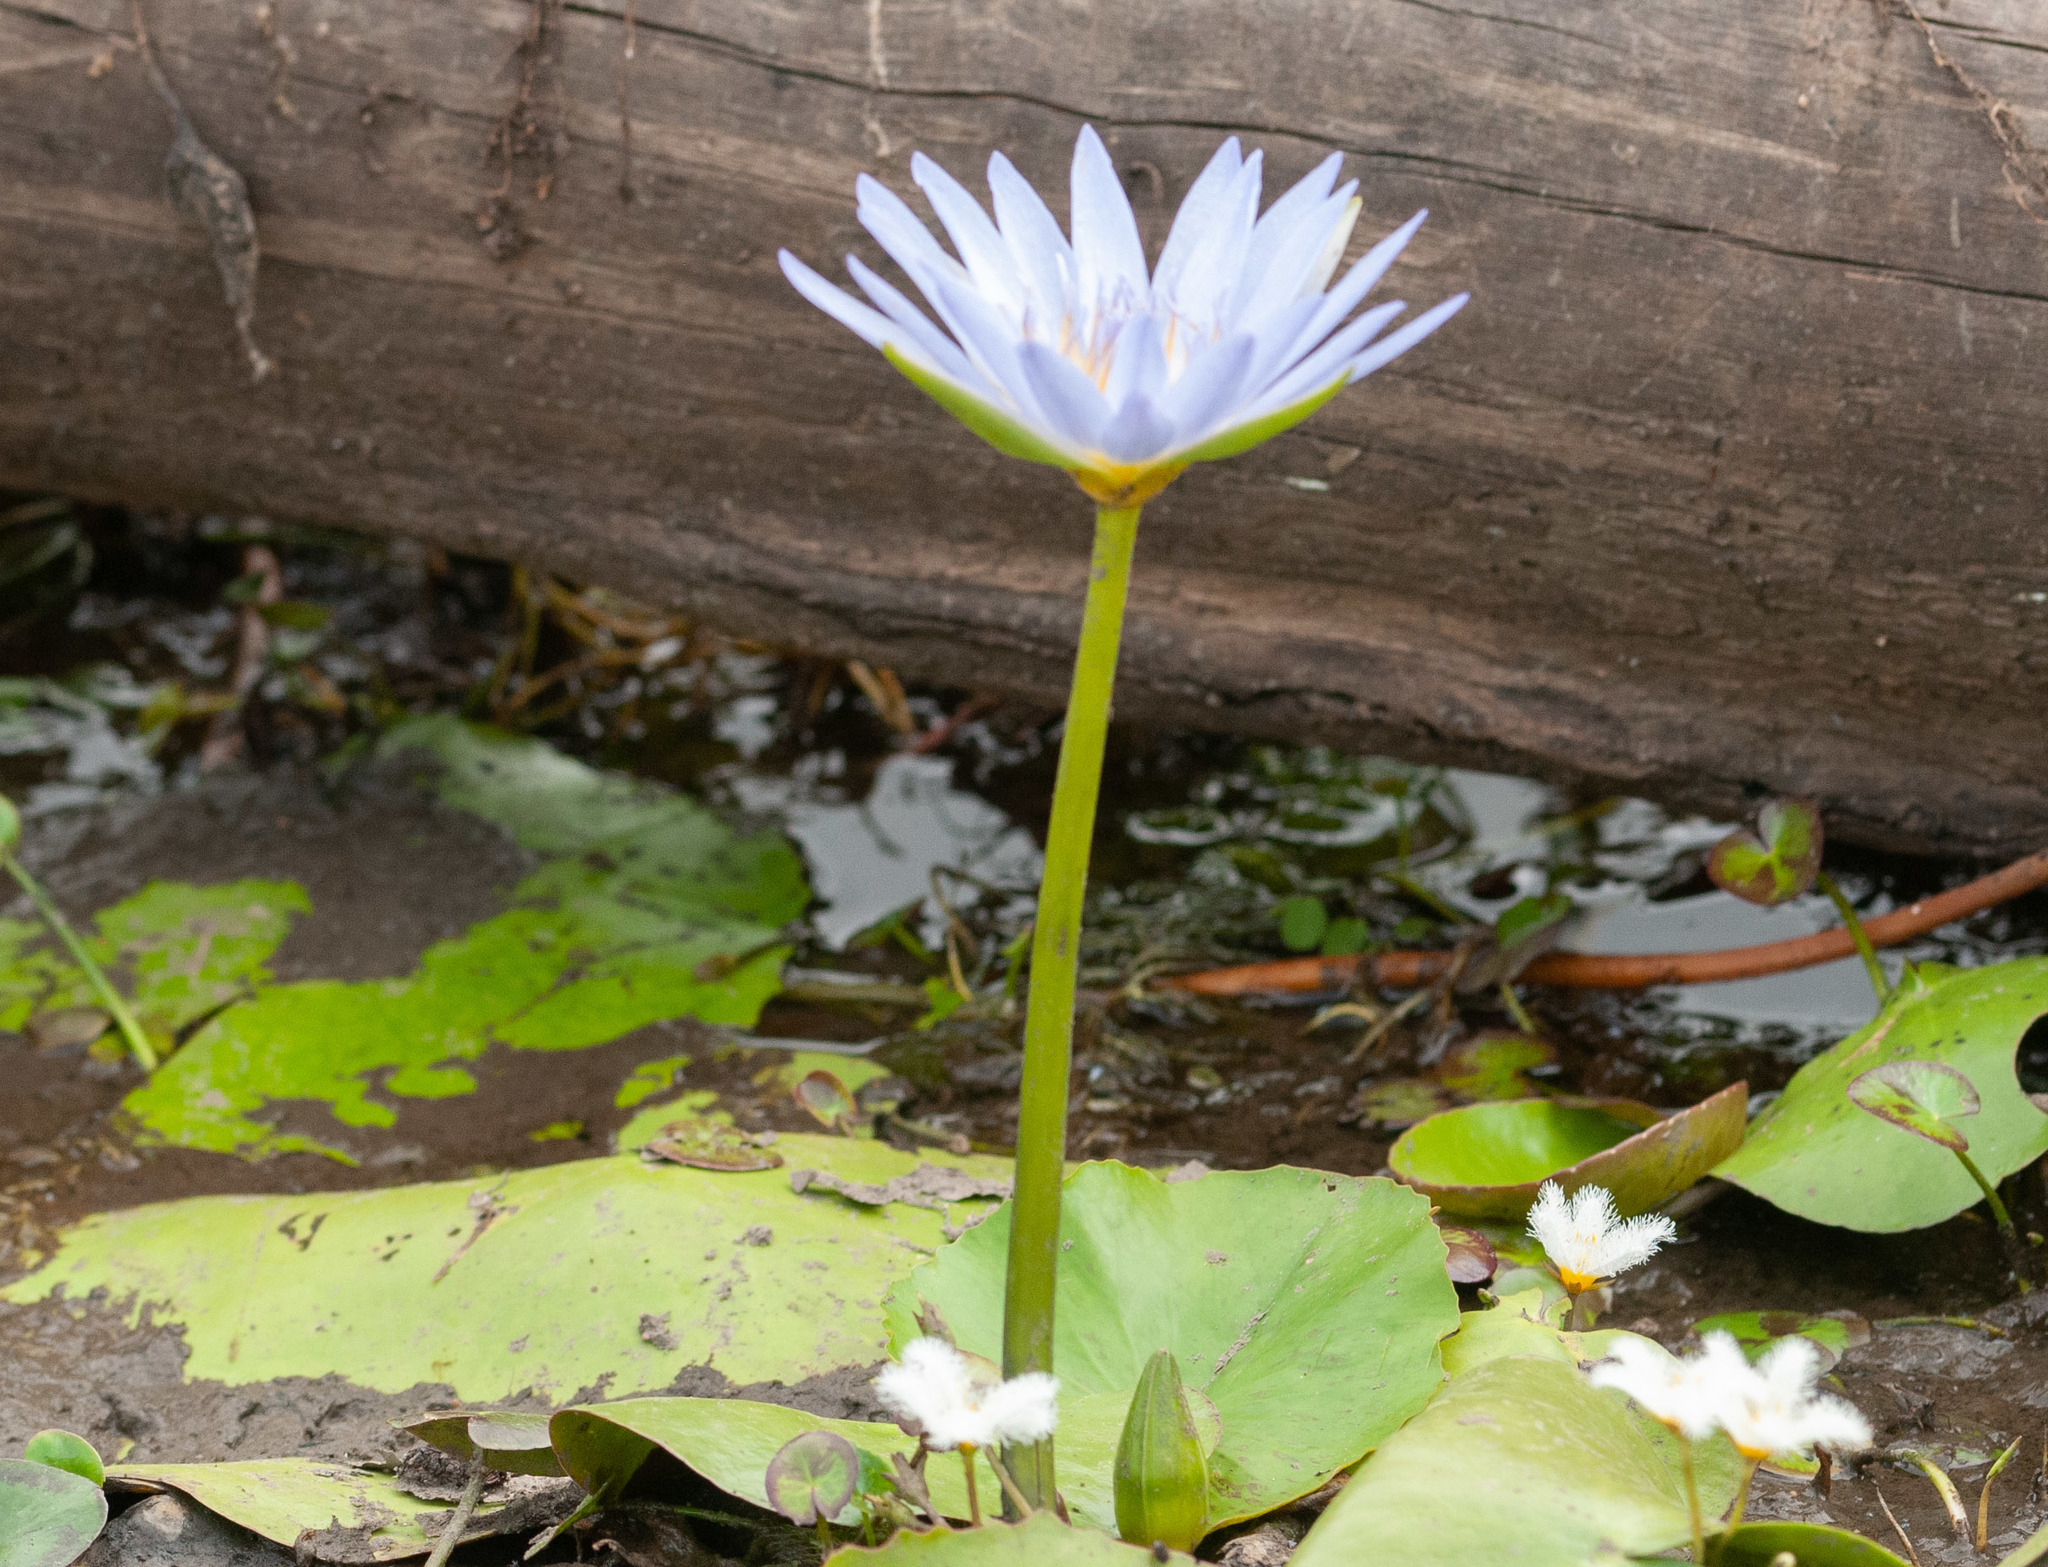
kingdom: Plantae
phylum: Tracheophyta
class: Magnoliopsida
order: Nymphaeales
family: Nymphaeaceae
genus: Nymphaea
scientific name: Nymphaea nouchali
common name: Blue lotus
